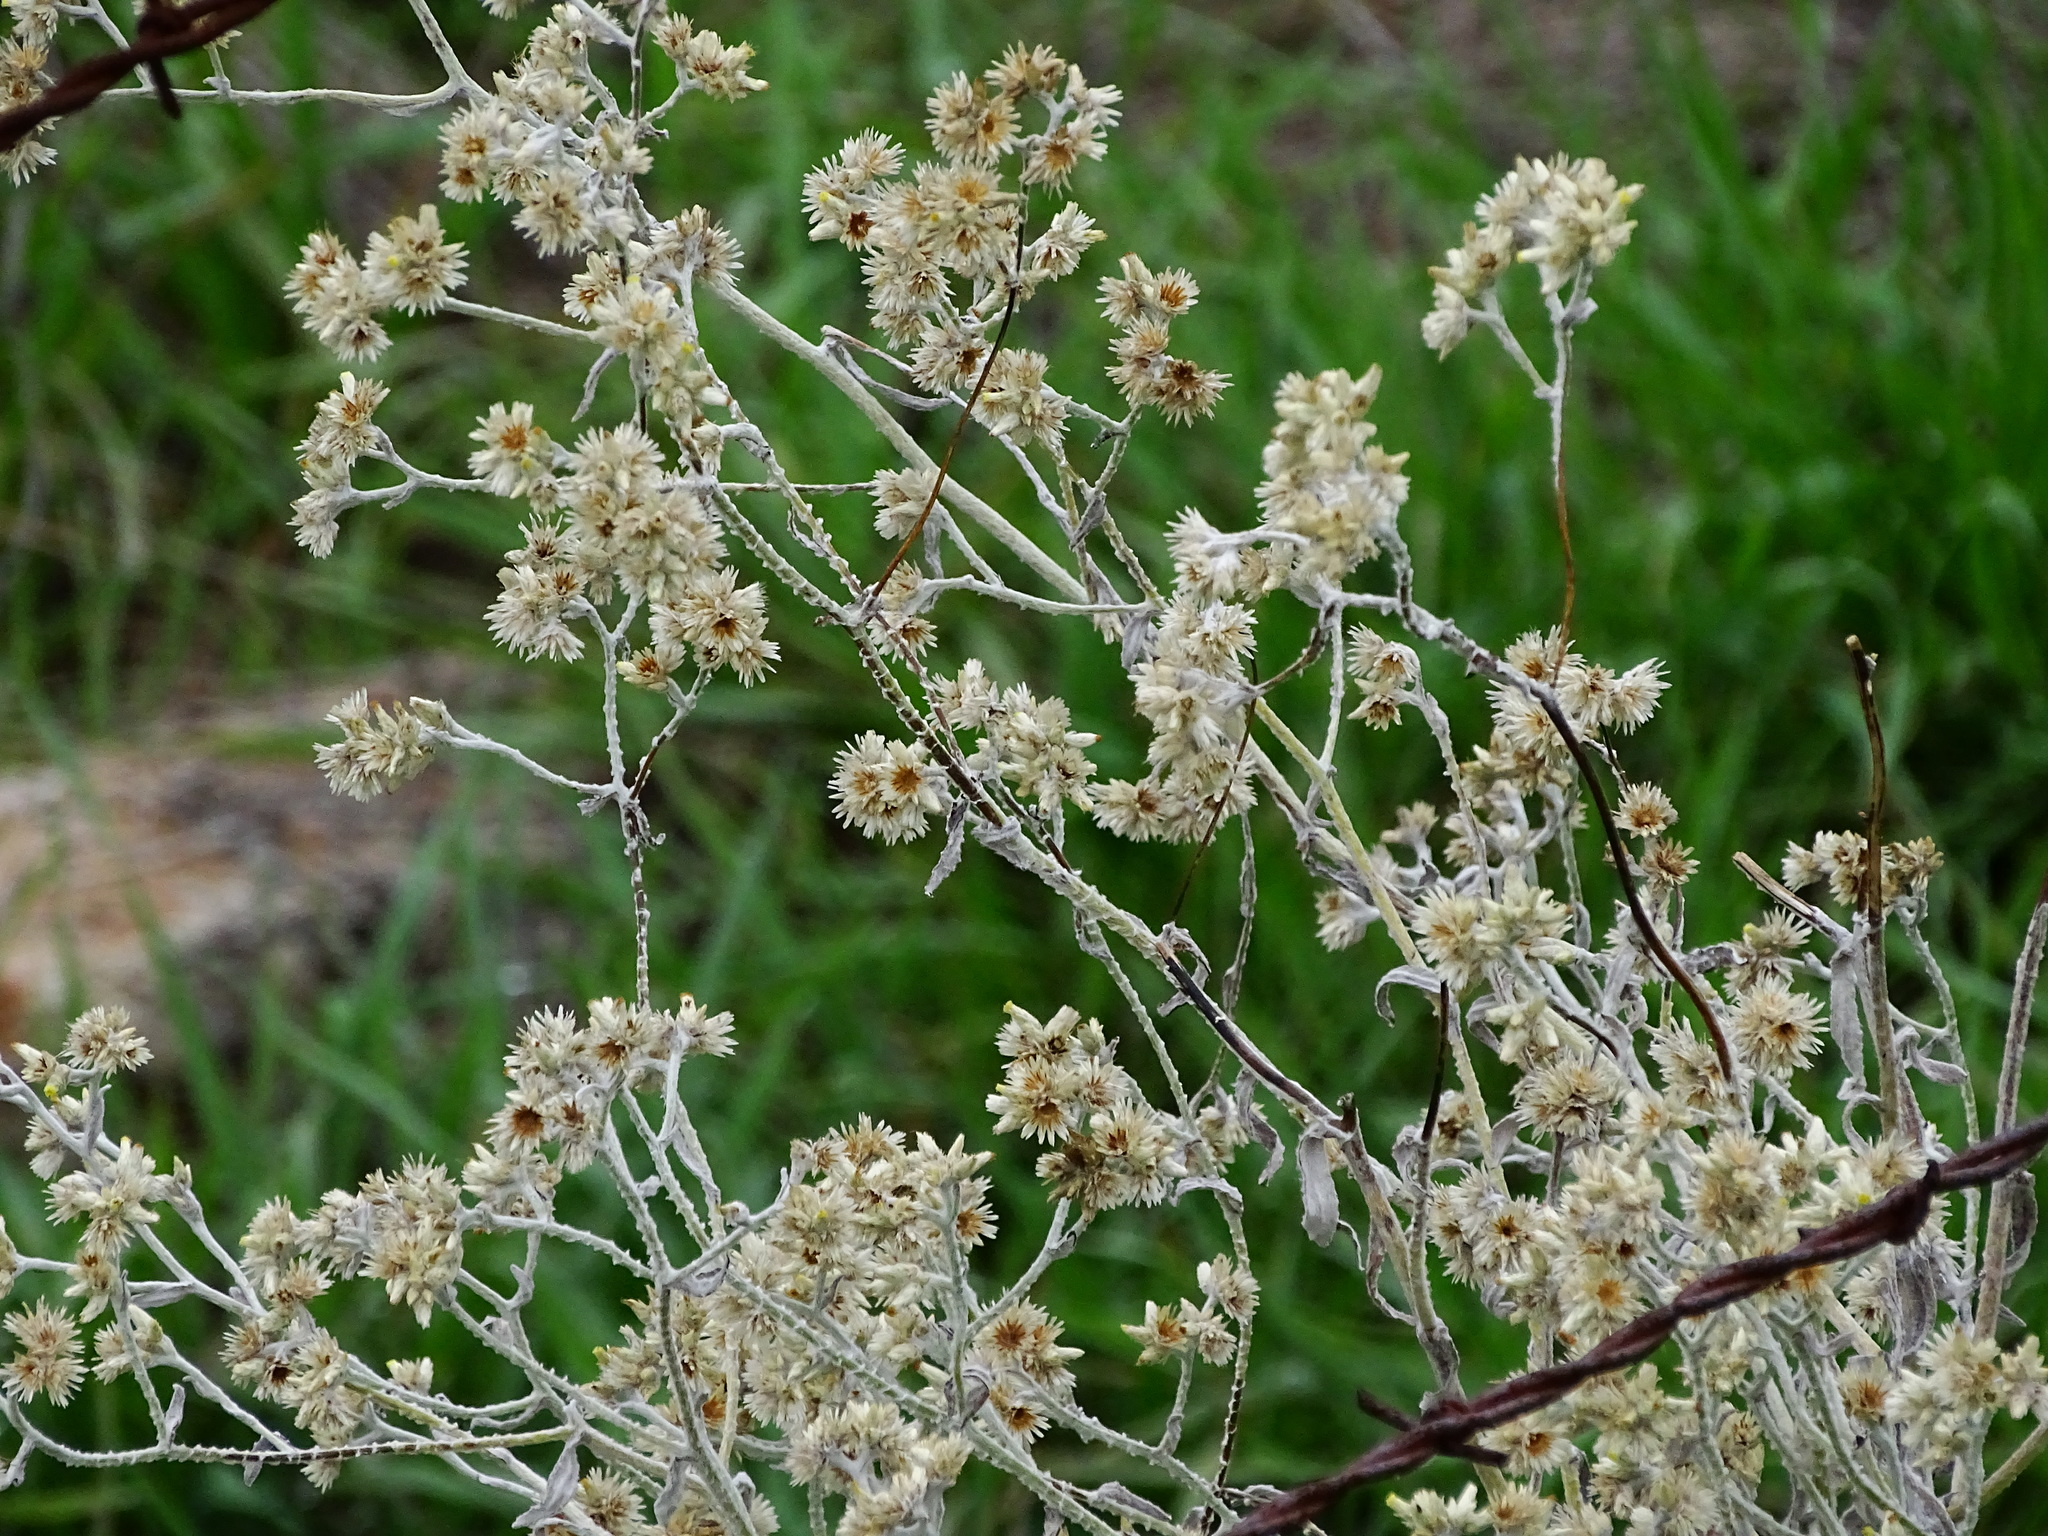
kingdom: Plantae
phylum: Tracheophyta
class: Magnoliopsida
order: Asterales
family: Asteraceae
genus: Pseudognaphalium
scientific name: Pseudognaphalium microcephalum
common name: San diego rabbit-tobacco
